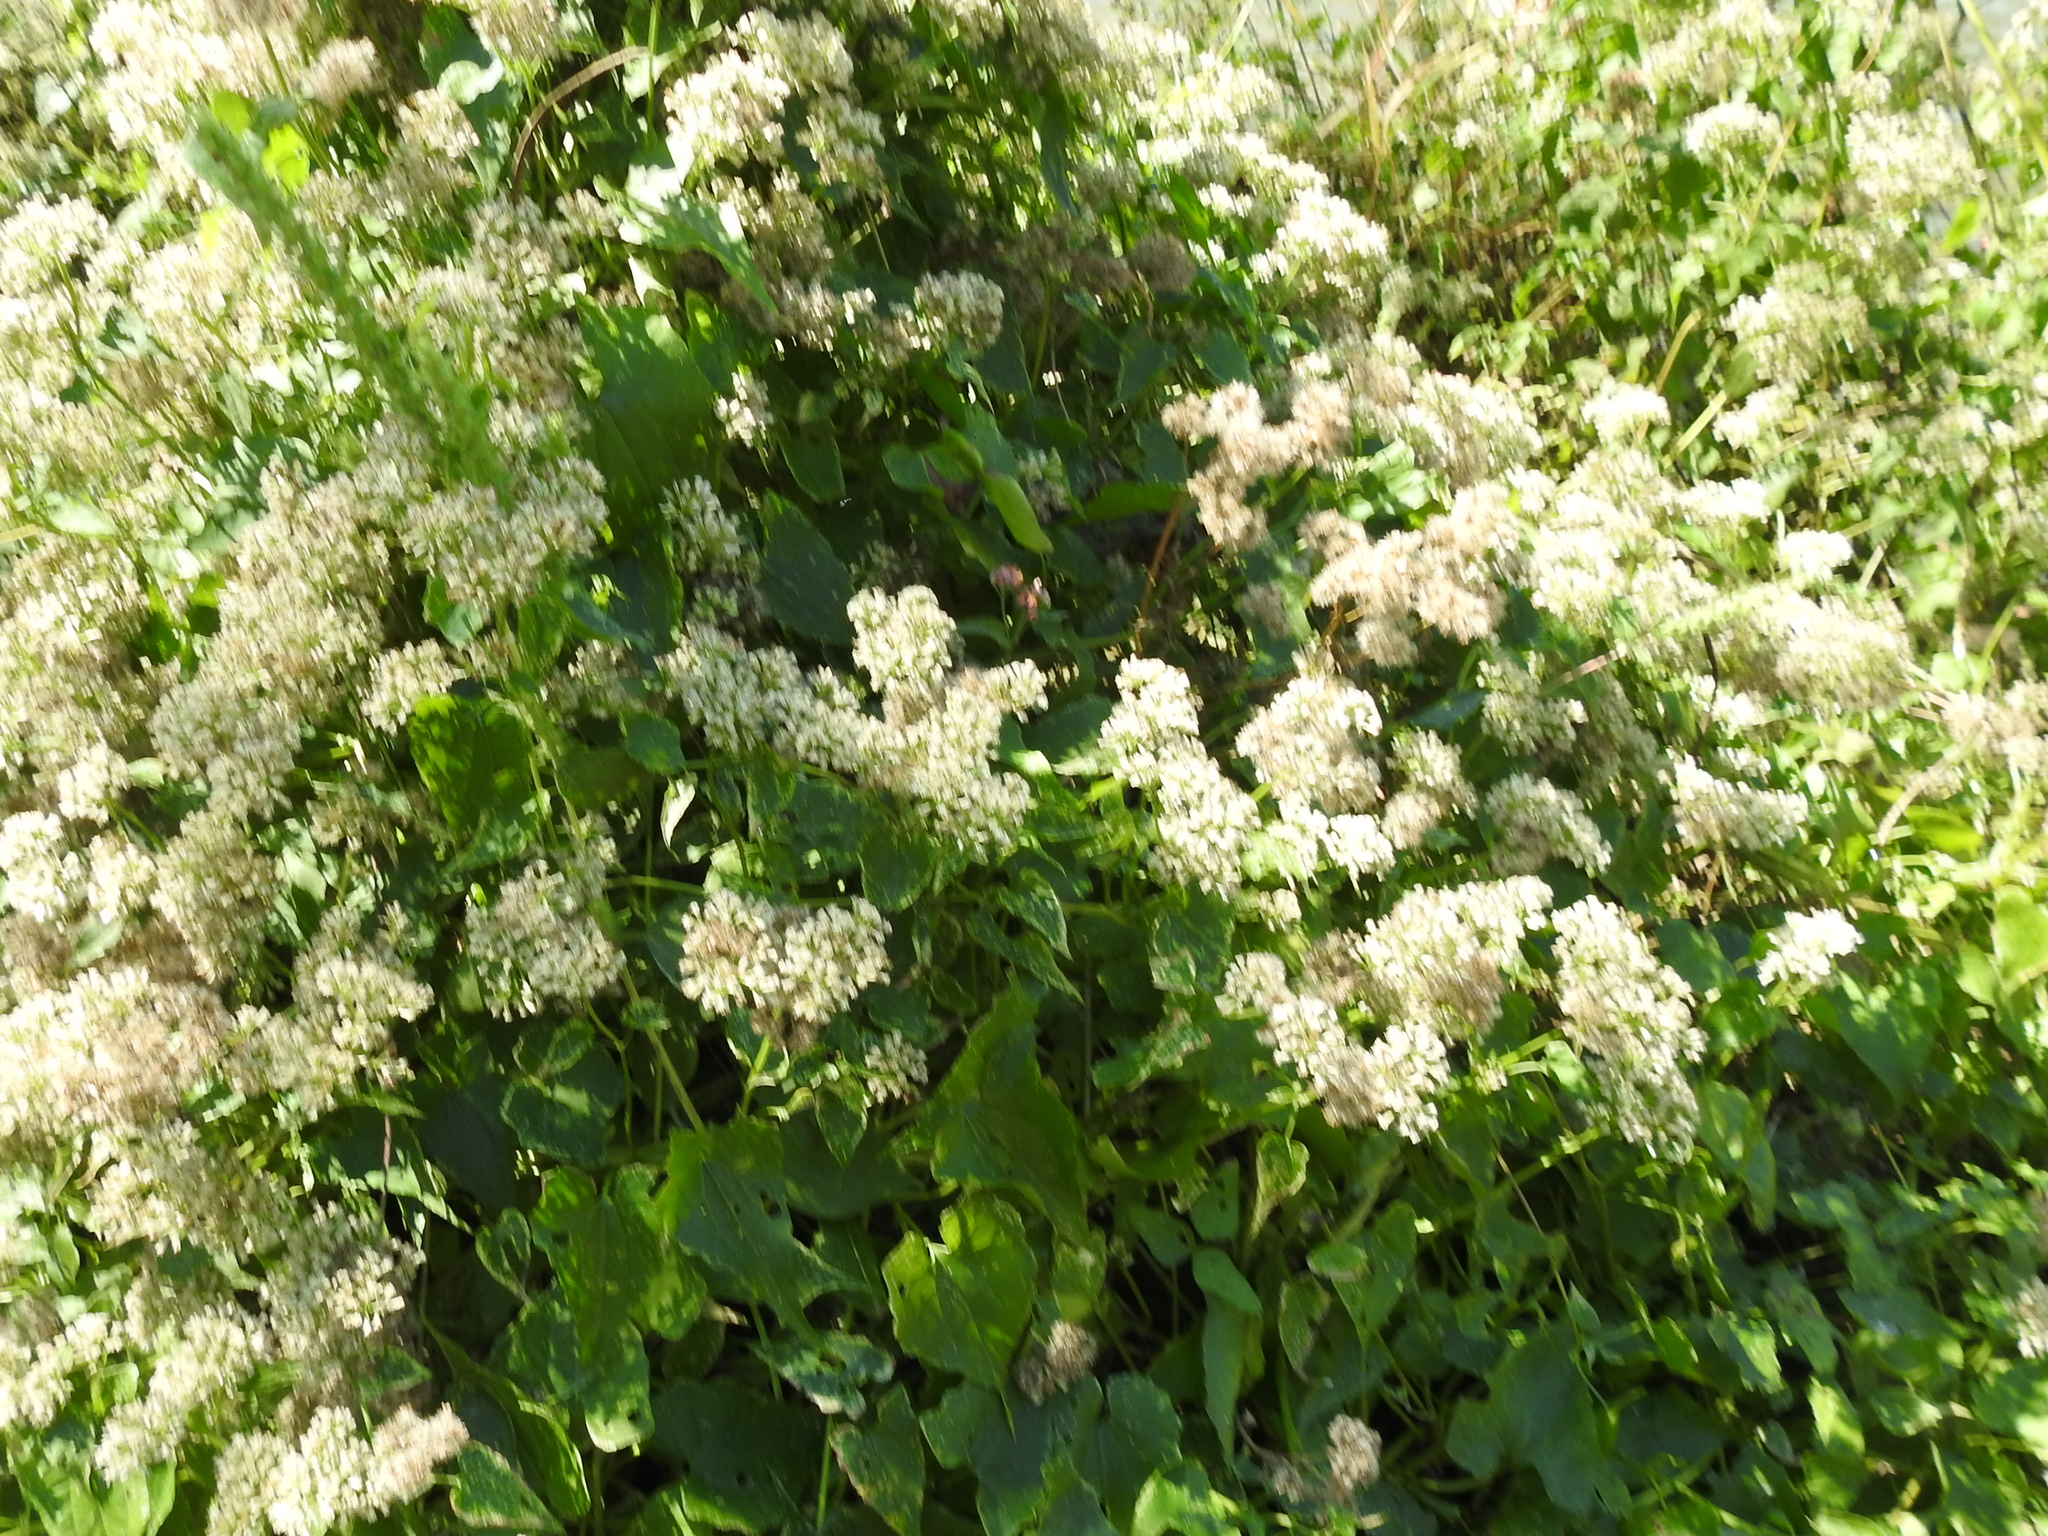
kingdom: Plantae
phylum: Tracheophyta
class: Magnoliopsida
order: Asterales
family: Asteraceae
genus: Mikania
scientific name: Mikania scandens
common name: Climbing hempvine
